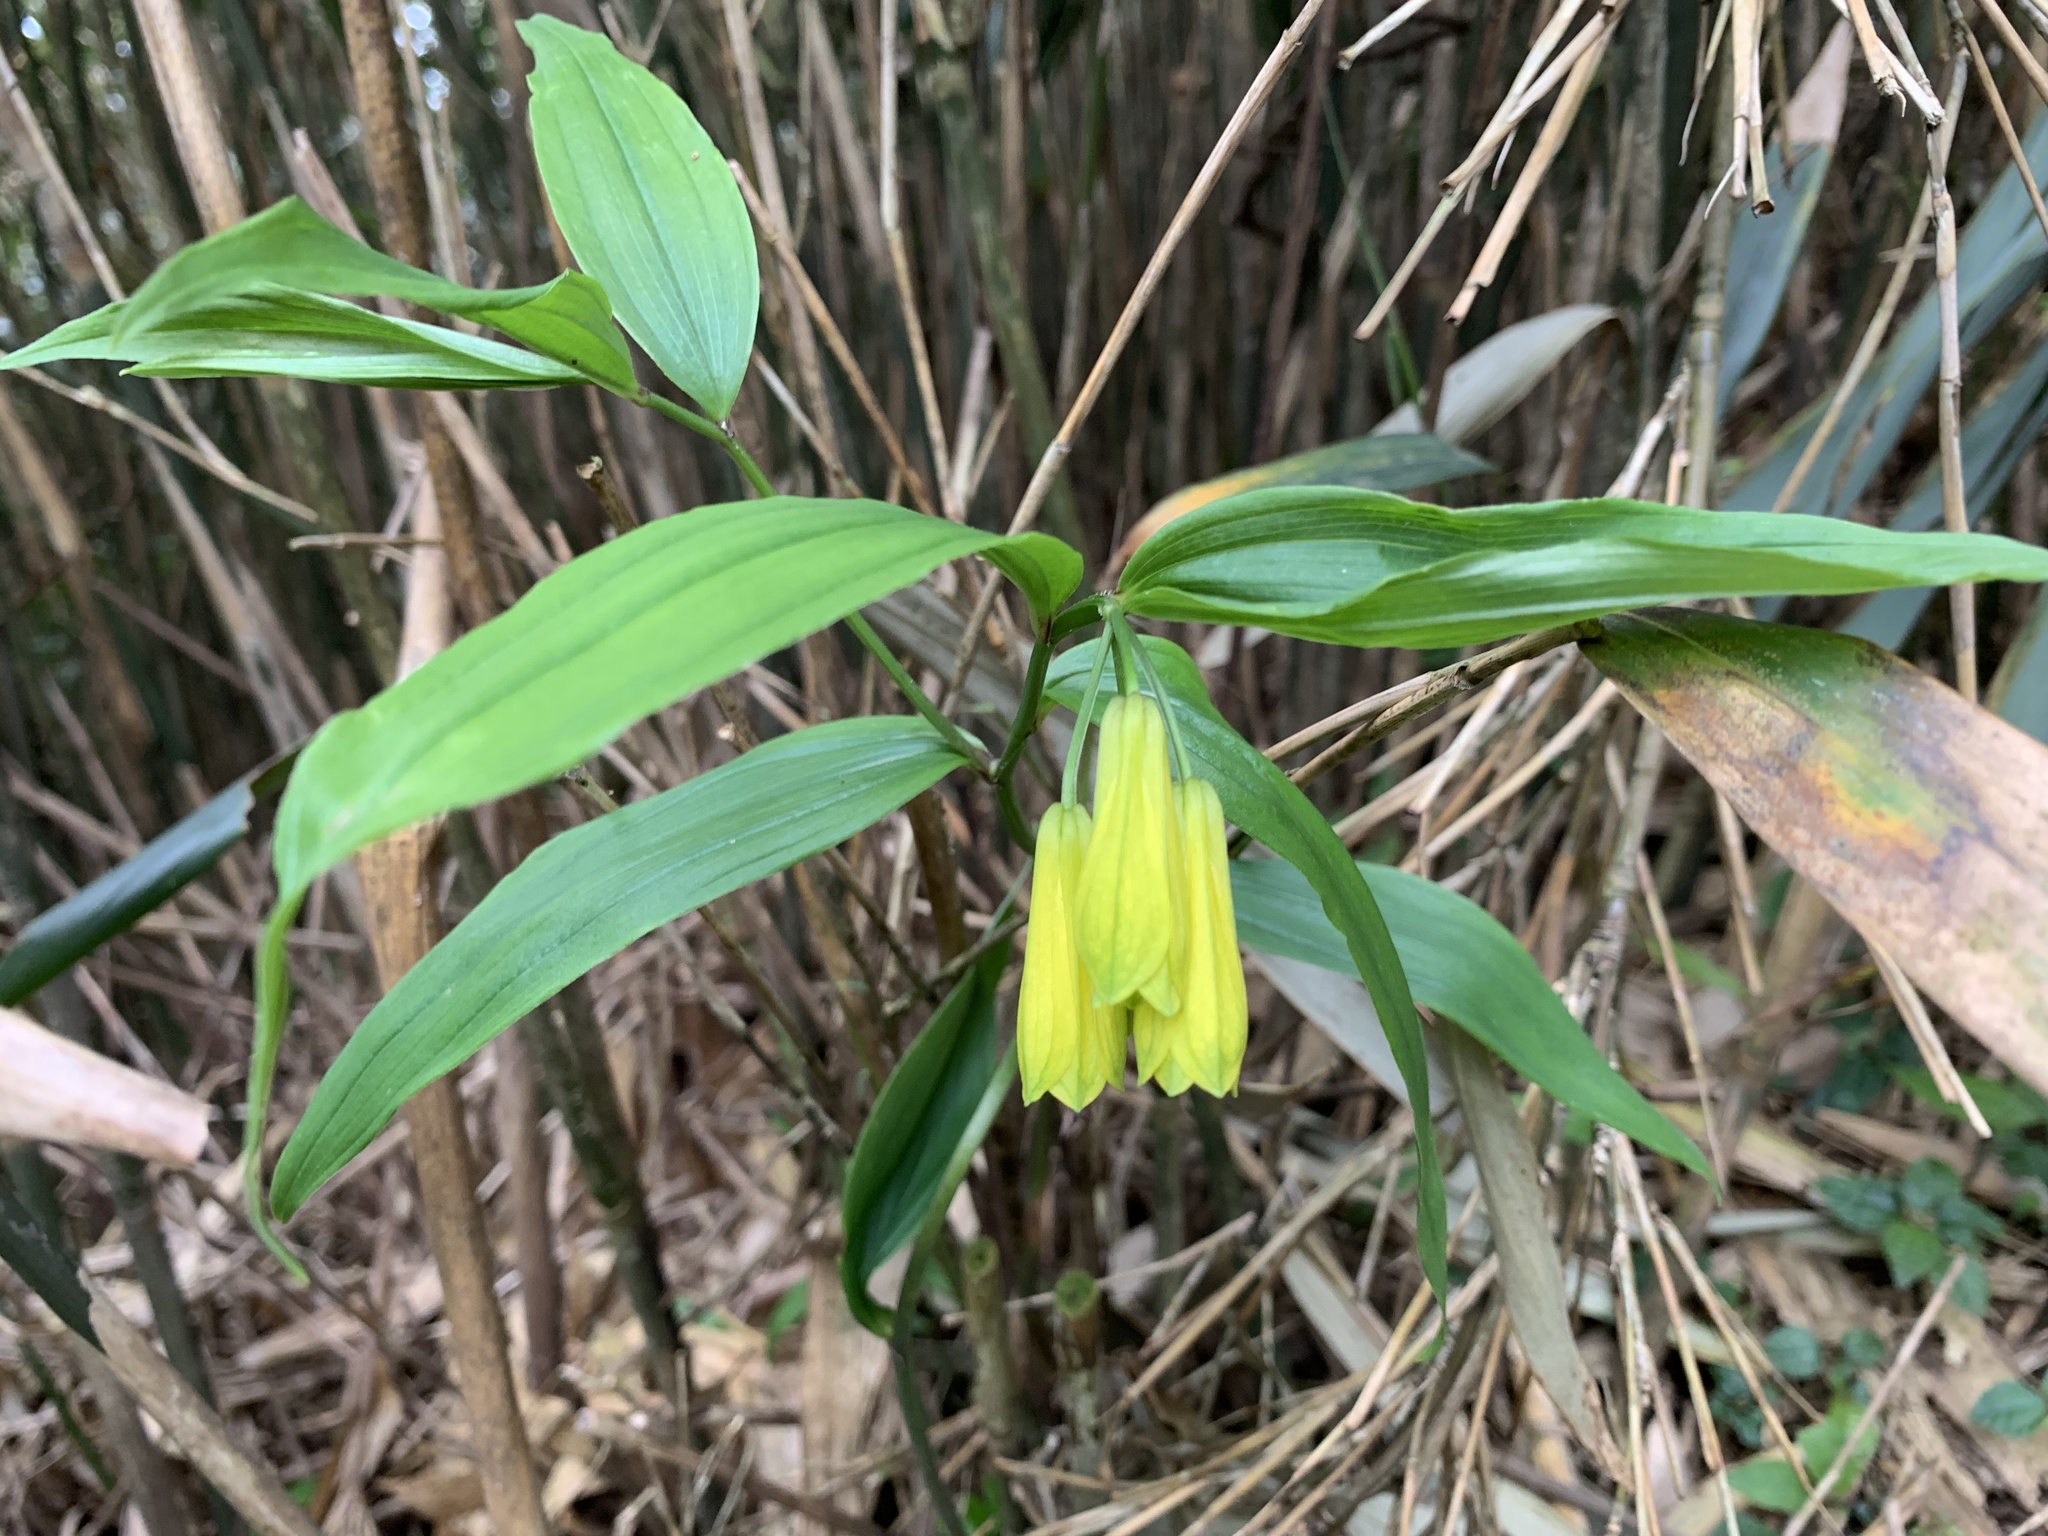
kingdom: Plantae
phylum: Tracheophyta
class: Liliopsida
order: Liliales
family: Colchicaceae
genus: Disporum
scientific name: Disporum shimadae
